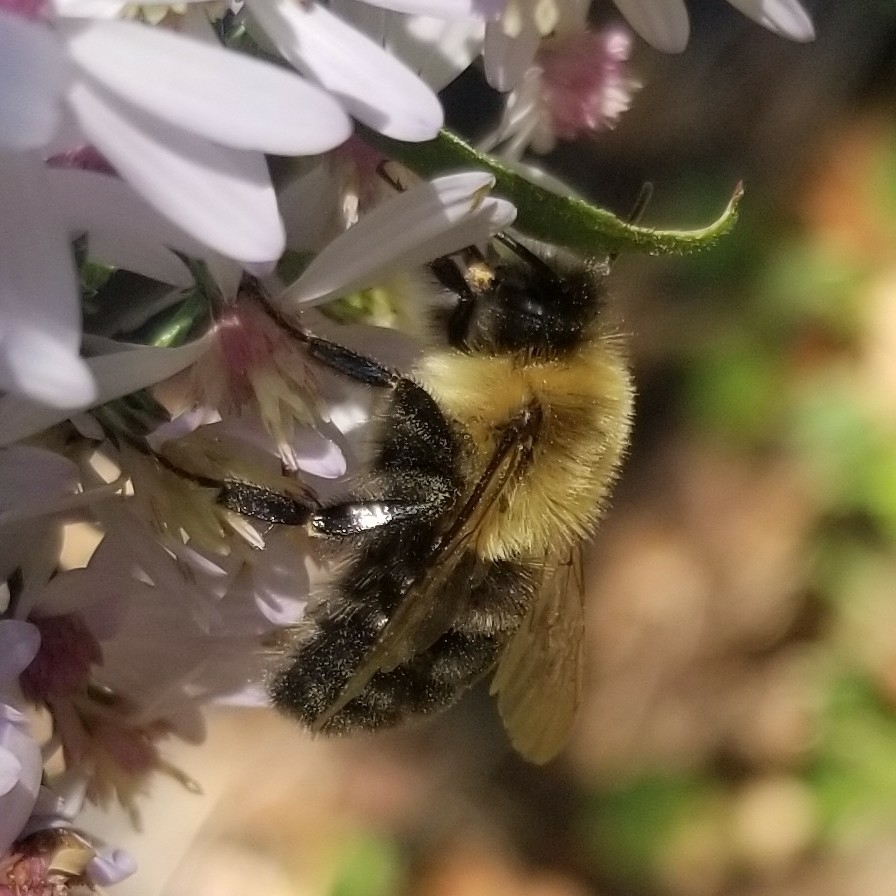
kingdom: Animalia
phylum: Arthropoda
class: Insecta
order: Hymenoptera
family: Apidae
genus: Bombus
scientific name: Bombus impatiens
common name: Common eastern bumble bee
